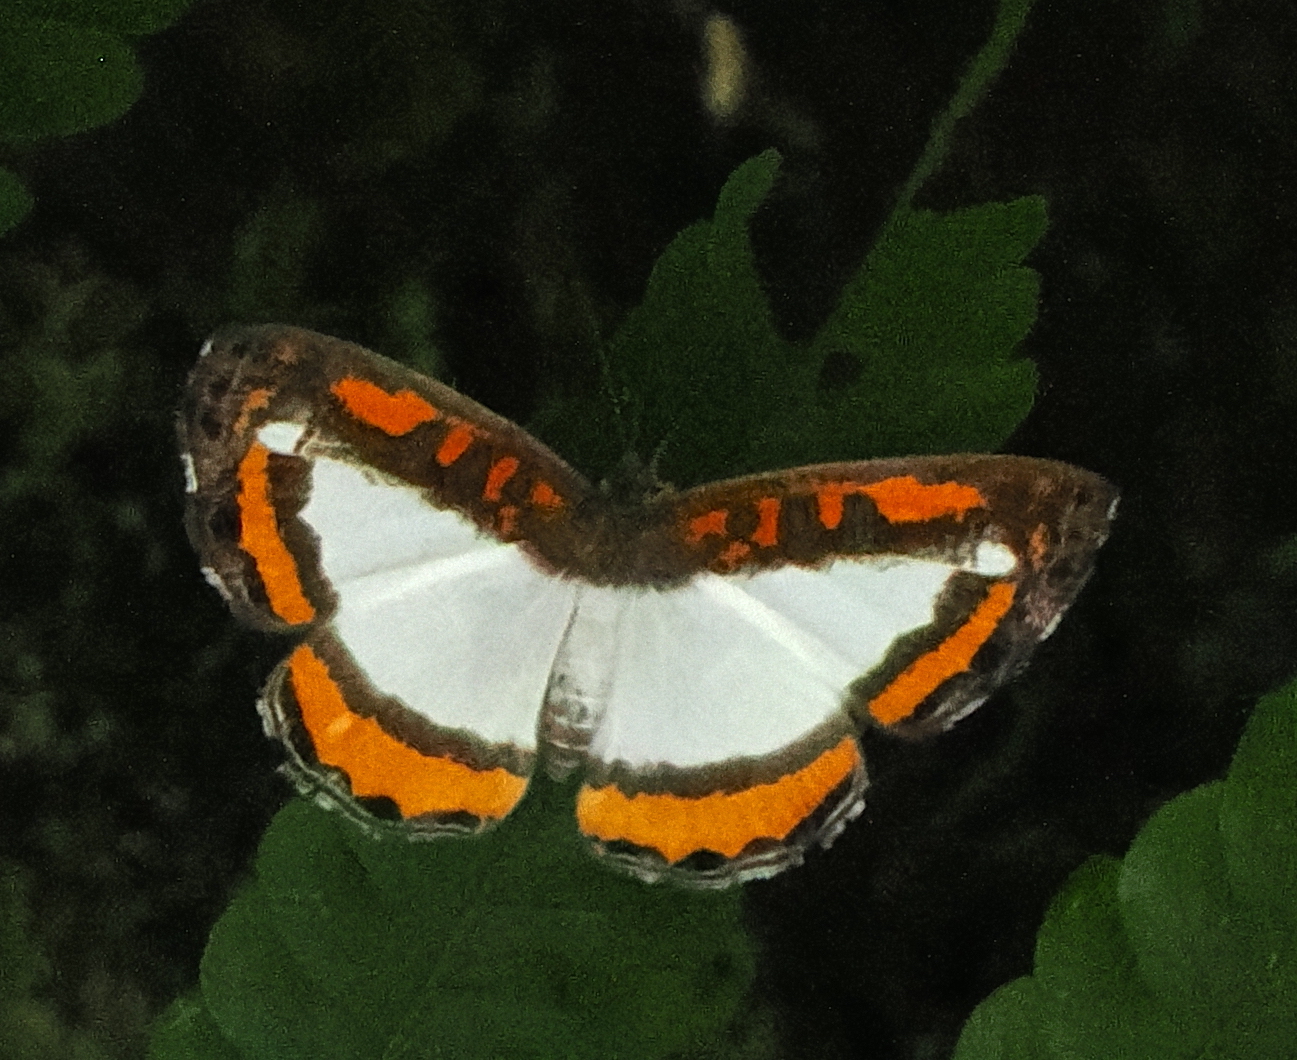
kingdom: Animalia
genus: Nymphidium
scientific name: Nymphidium lisimon
